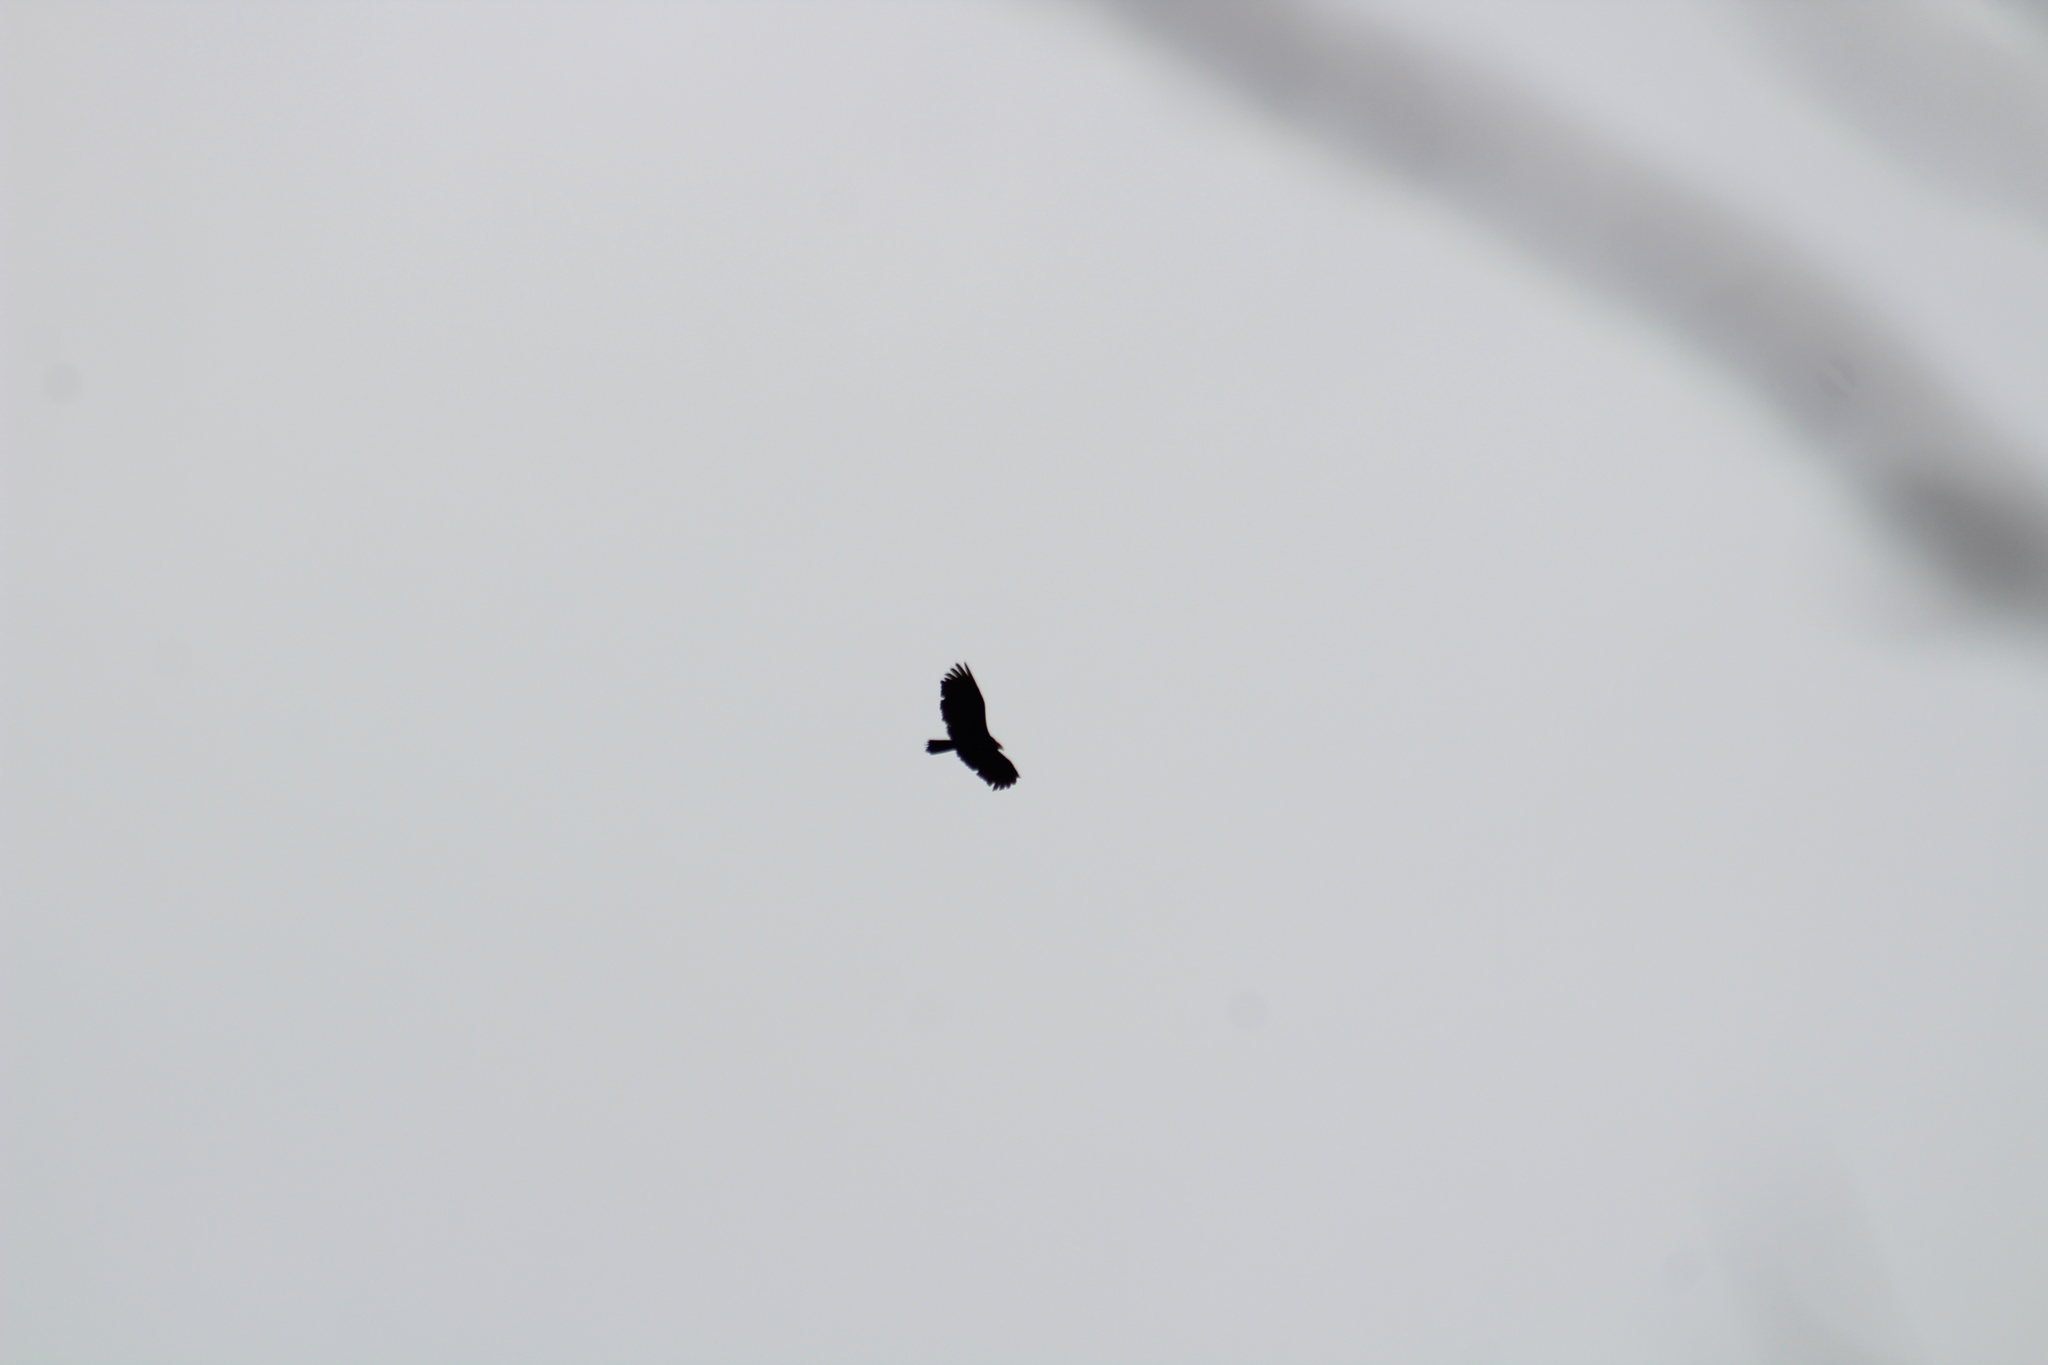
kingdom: Animalia
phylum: Chordata
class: Aves
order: Accipitriformes
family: Cathartidae
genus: Cathartes
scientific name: Cathartes aura
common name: Turkey vulture
